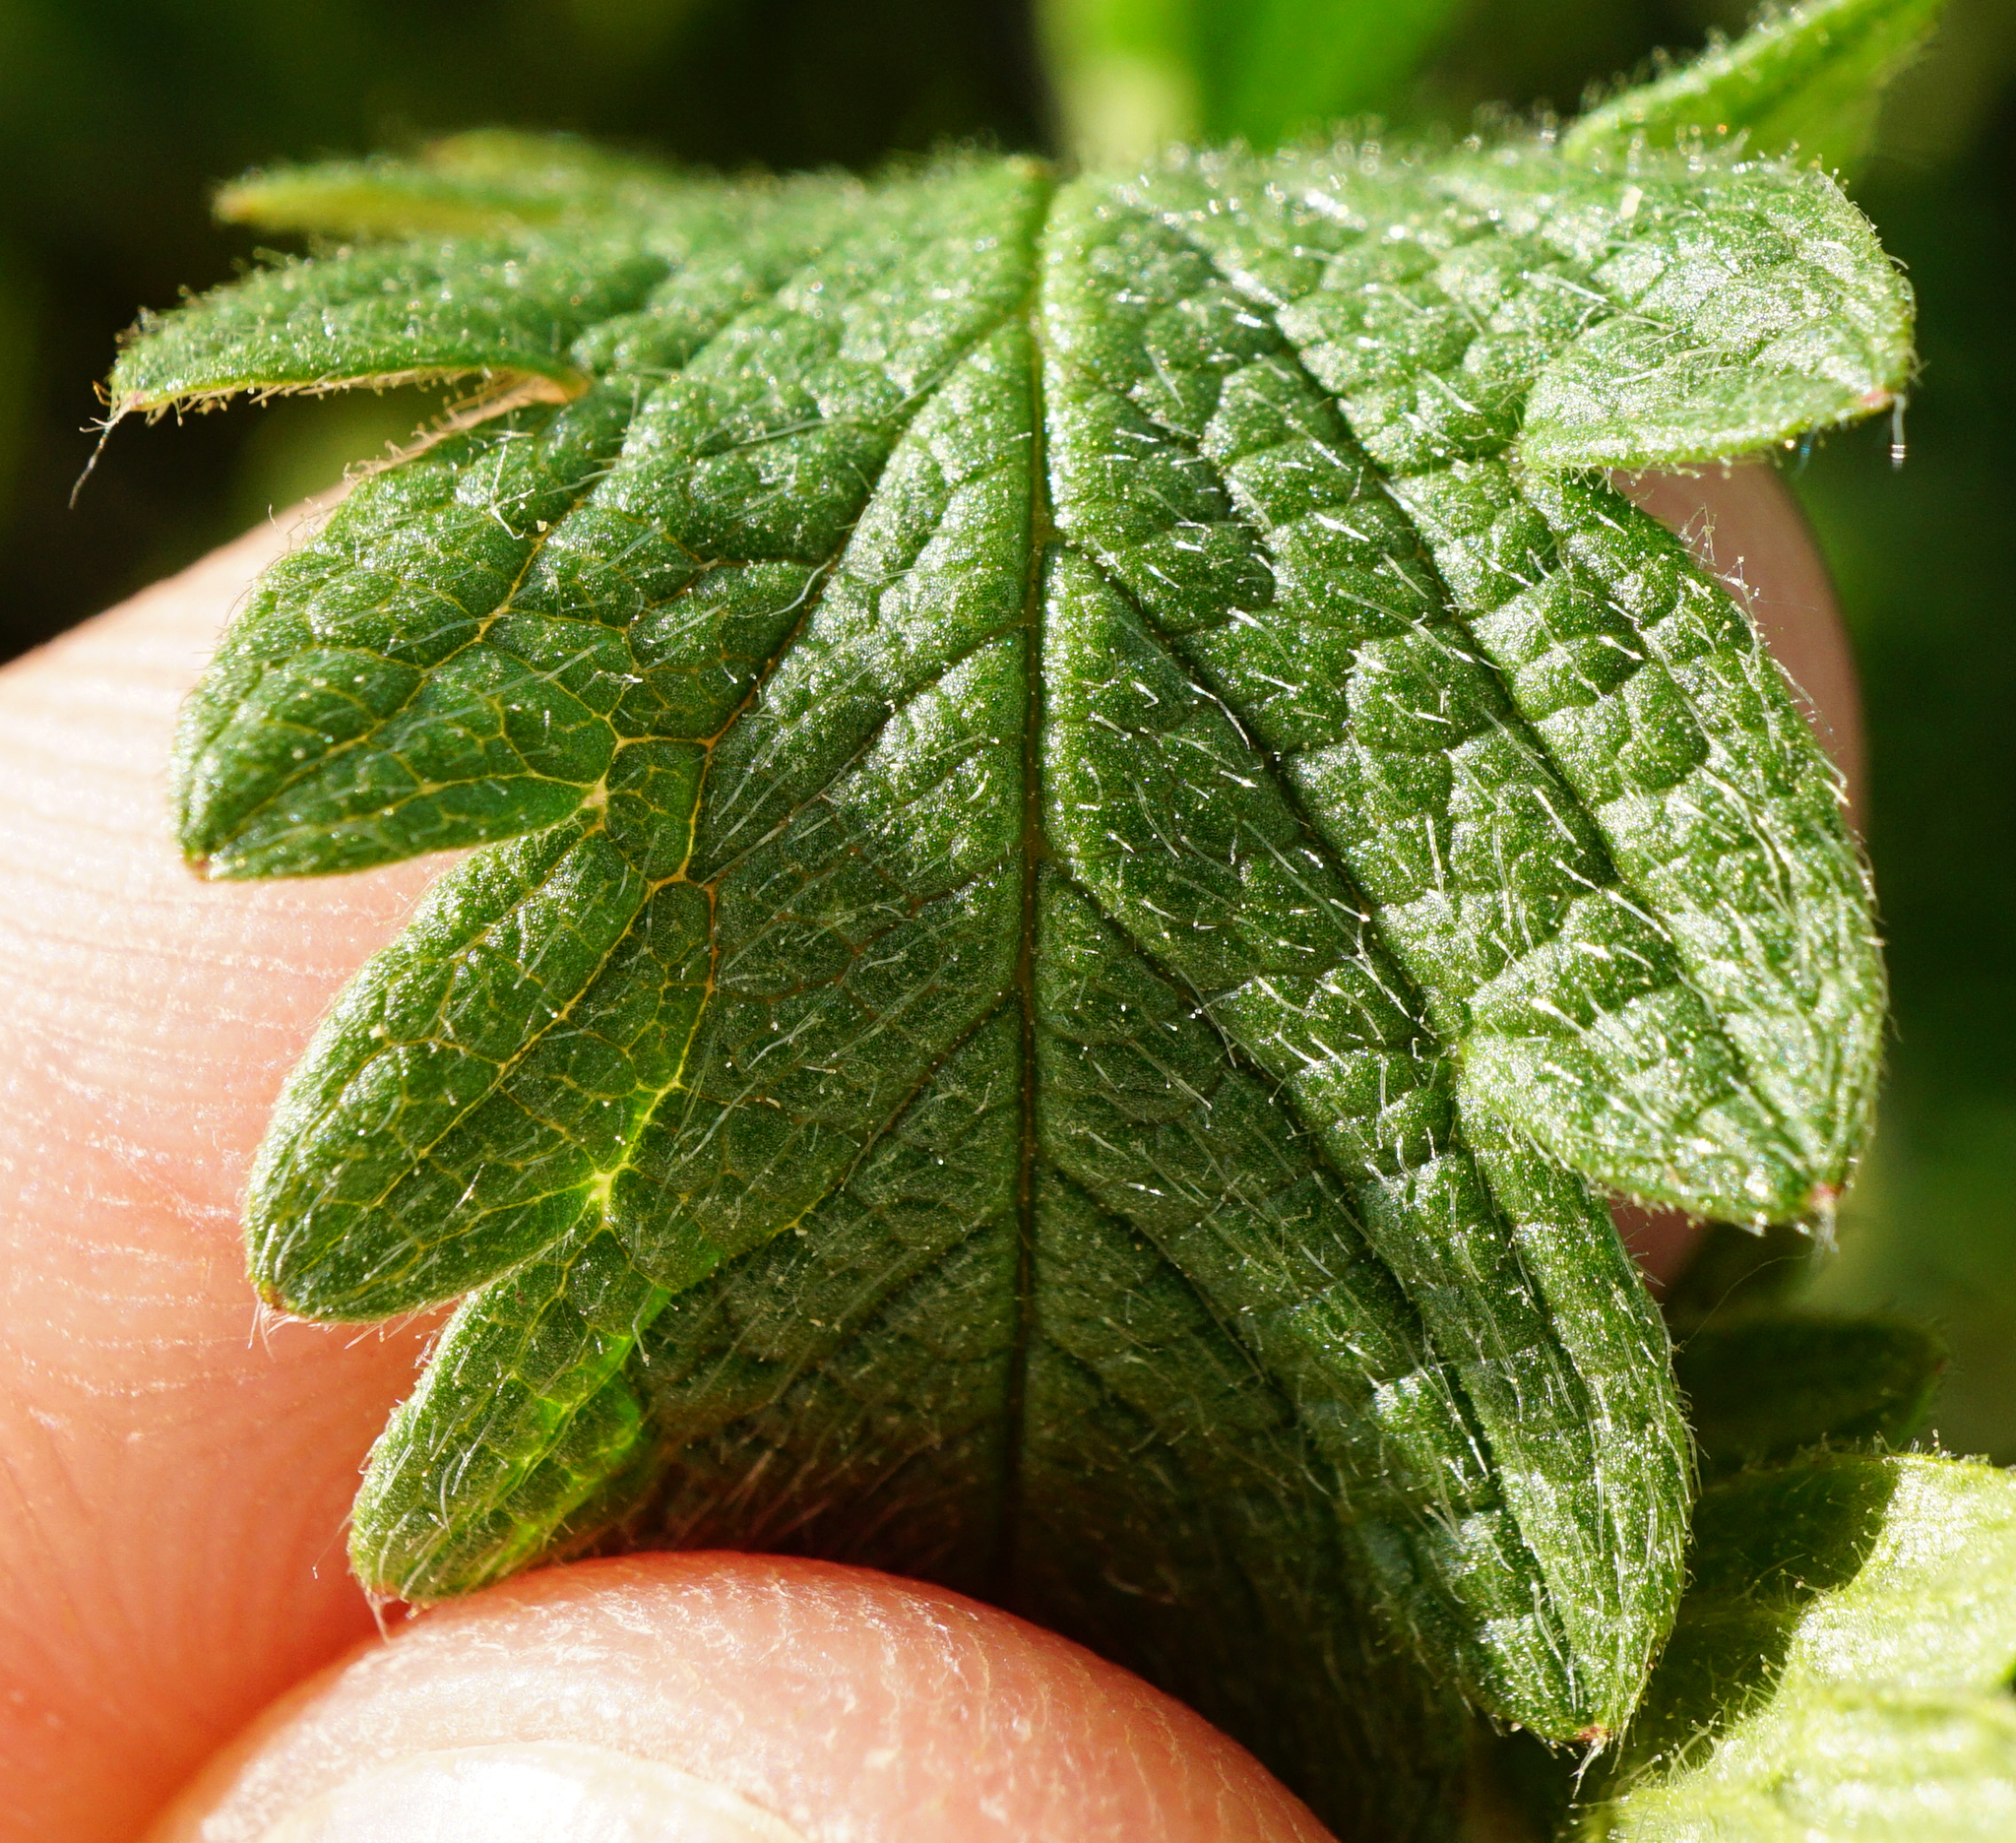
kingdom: Plantae
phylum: Tracheophyta
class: Magnoliopsida
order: Rosales
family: Rosaceae
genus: Potentilla
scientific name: Potentilla recta
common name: Sulphur cinquefoil
